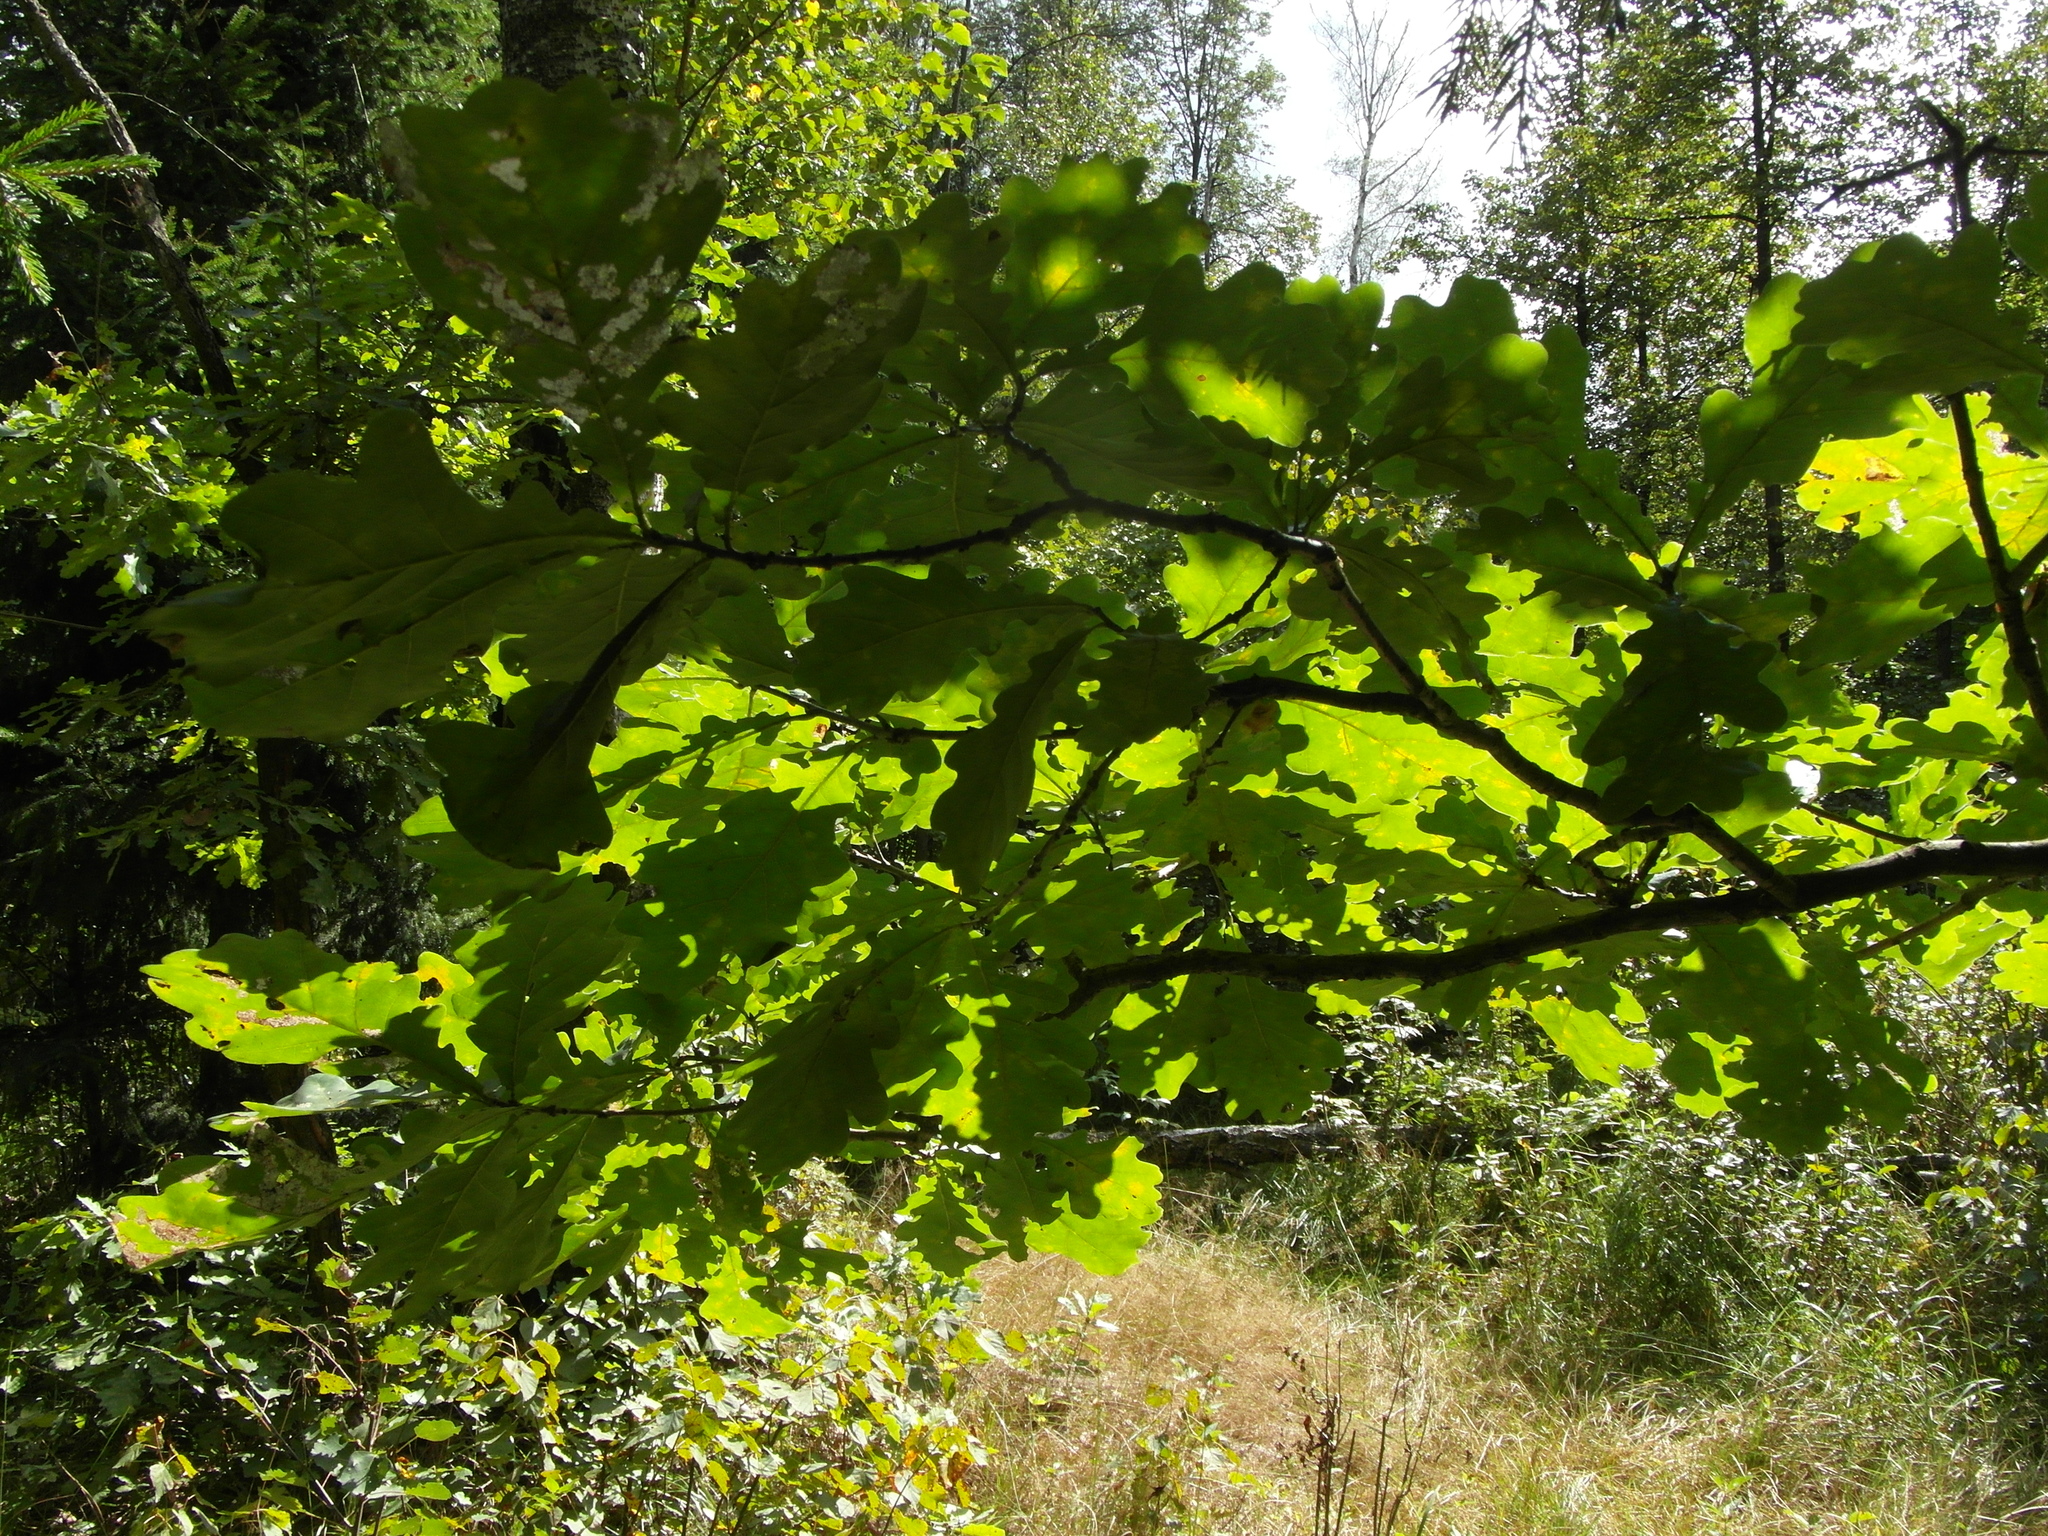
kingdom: Plantae
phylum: Tracheophyta
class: Magnoliopsida
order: Fagales
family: Fagaceae
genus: Quercus
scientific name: Quercus robur
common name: Pedunculate oak
